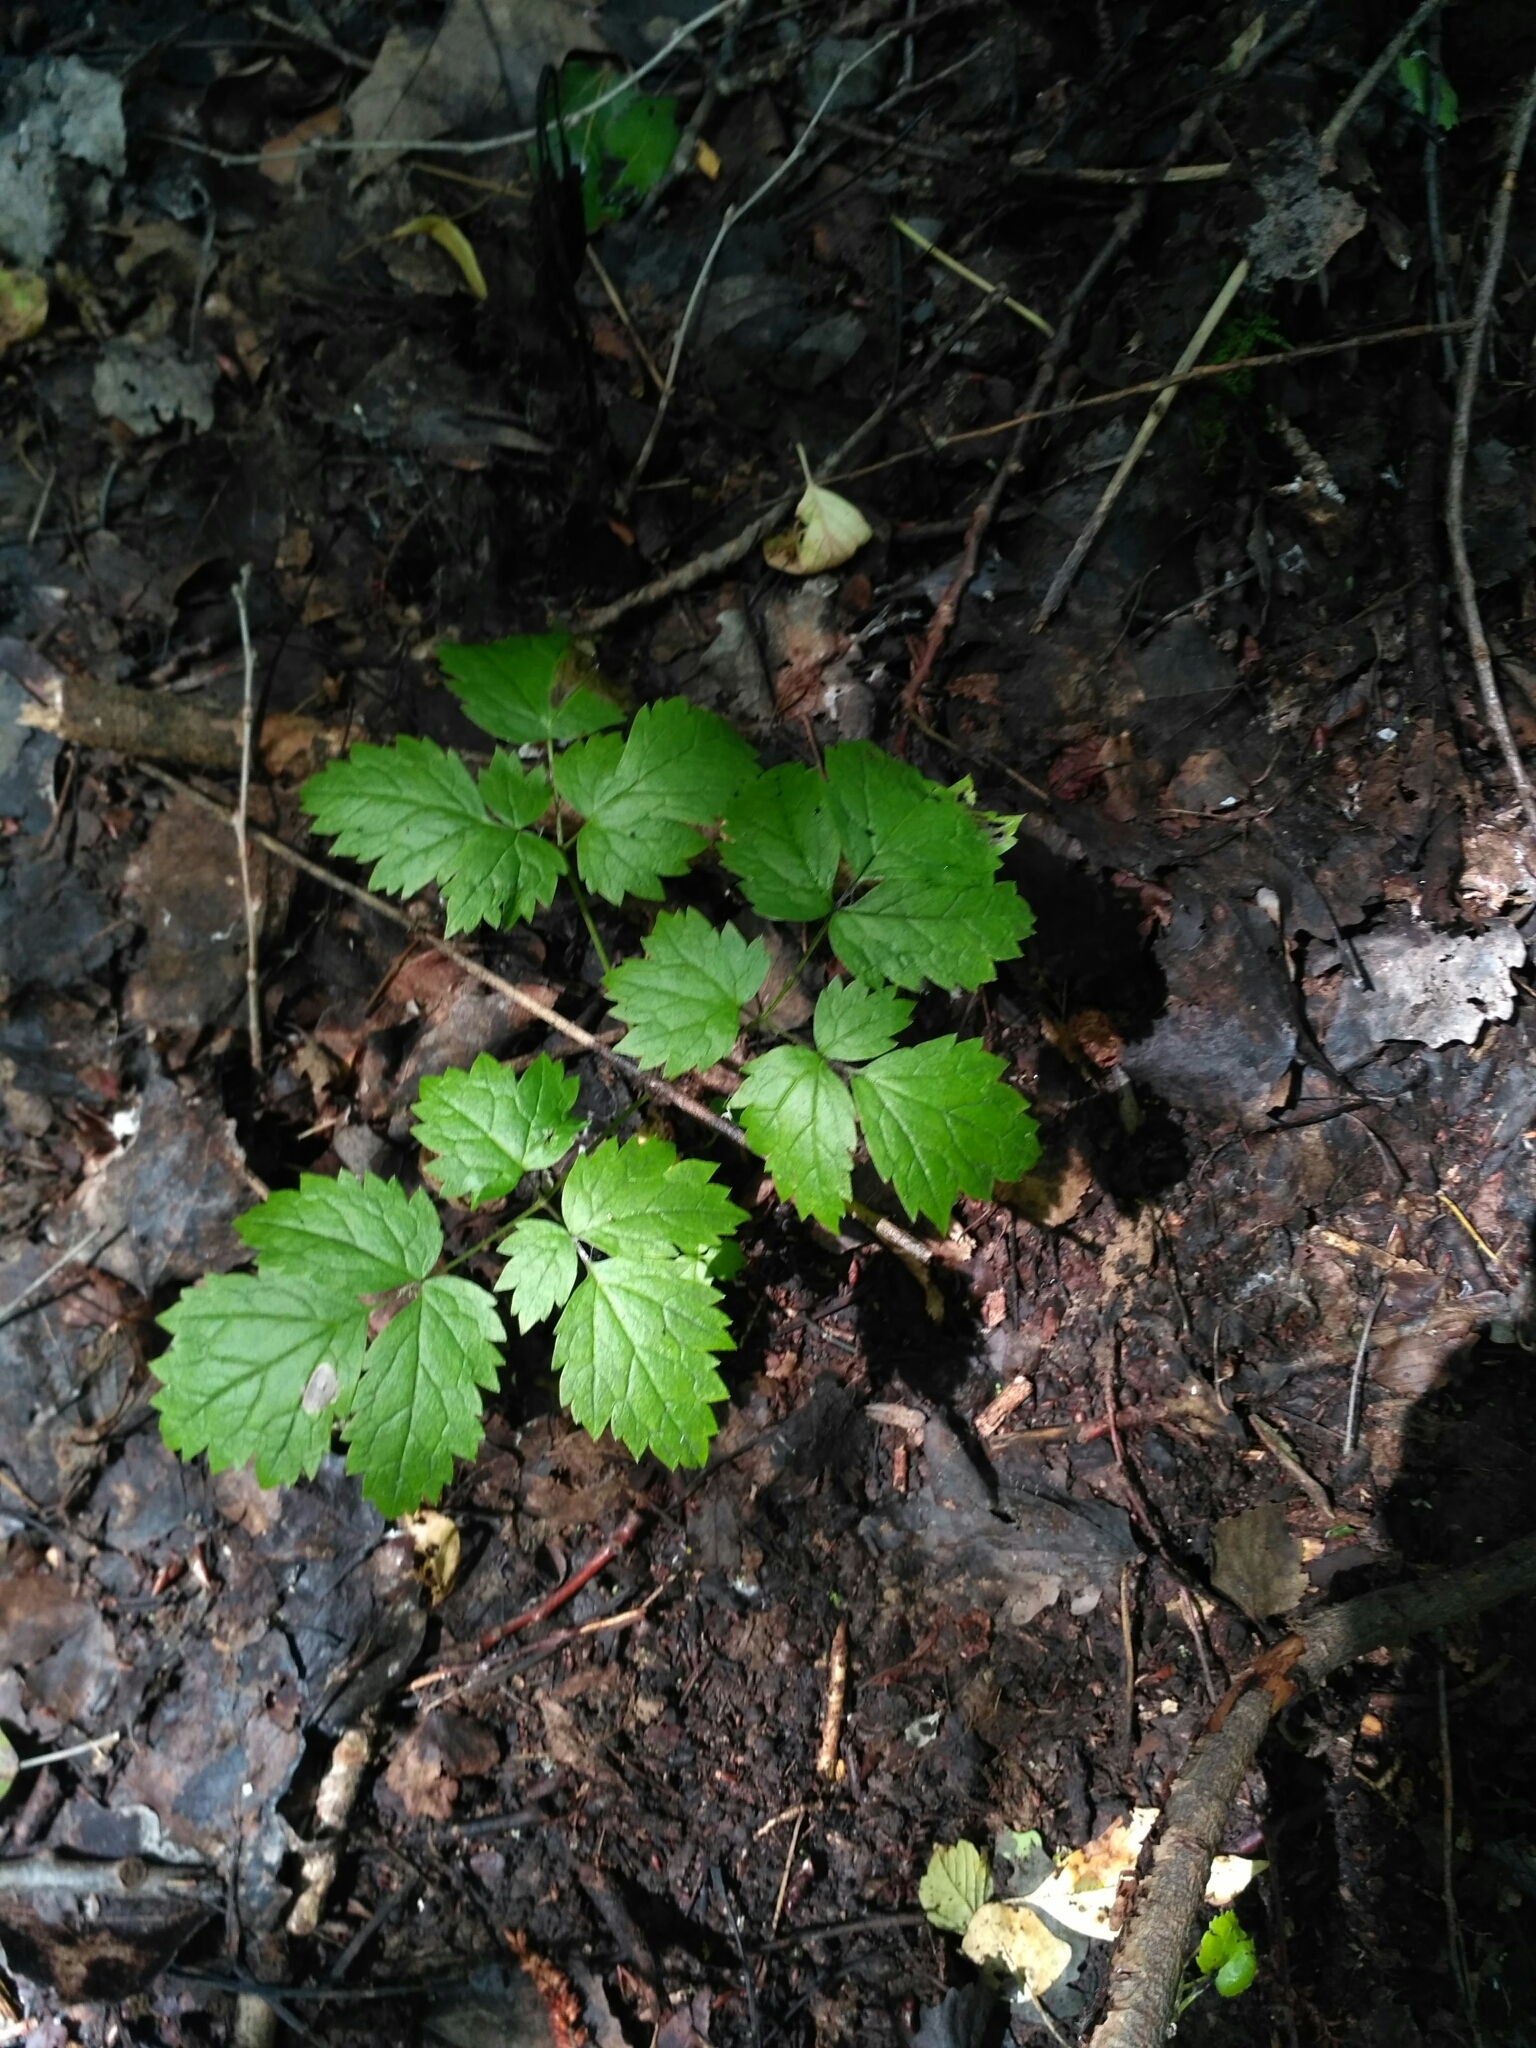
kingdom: Plantae
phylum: Tracheophyta
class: Magnoliopsida
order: Ranunculales
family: Ranunculaceae
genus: Actaea
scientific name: Actaea spicata
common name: Baneberry
